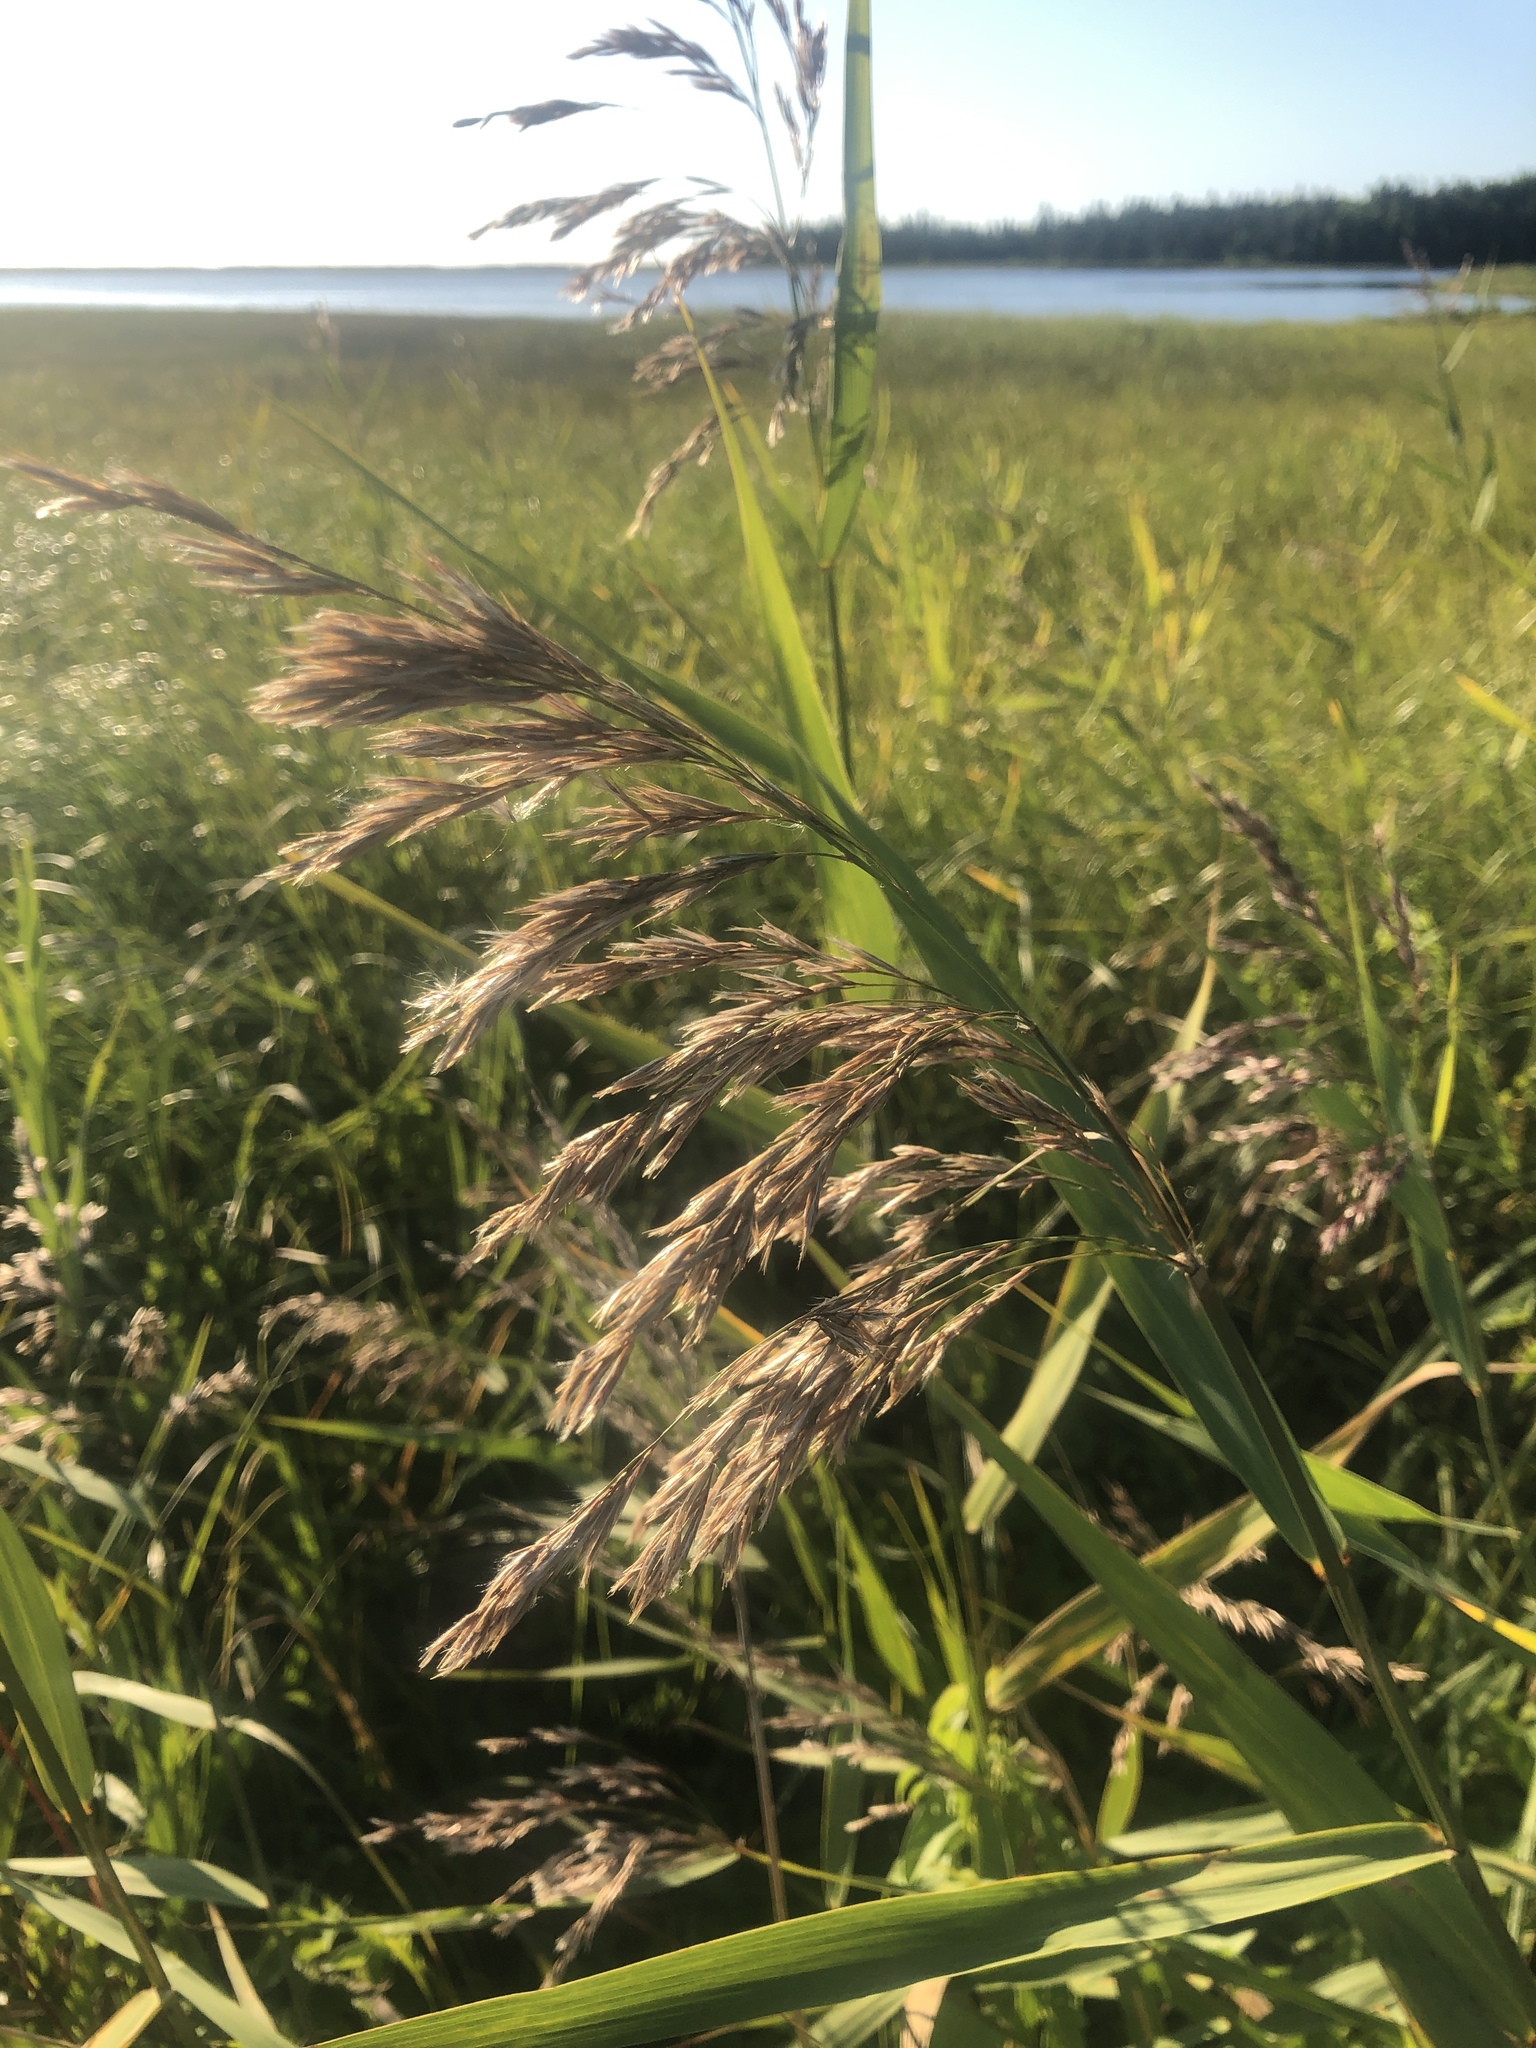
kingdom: Plantae
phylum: Tracheophyta
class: Liliopsida
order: Poales
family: Poaceae
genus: Phragmites
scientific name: Phragmites australis
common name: Common reed
